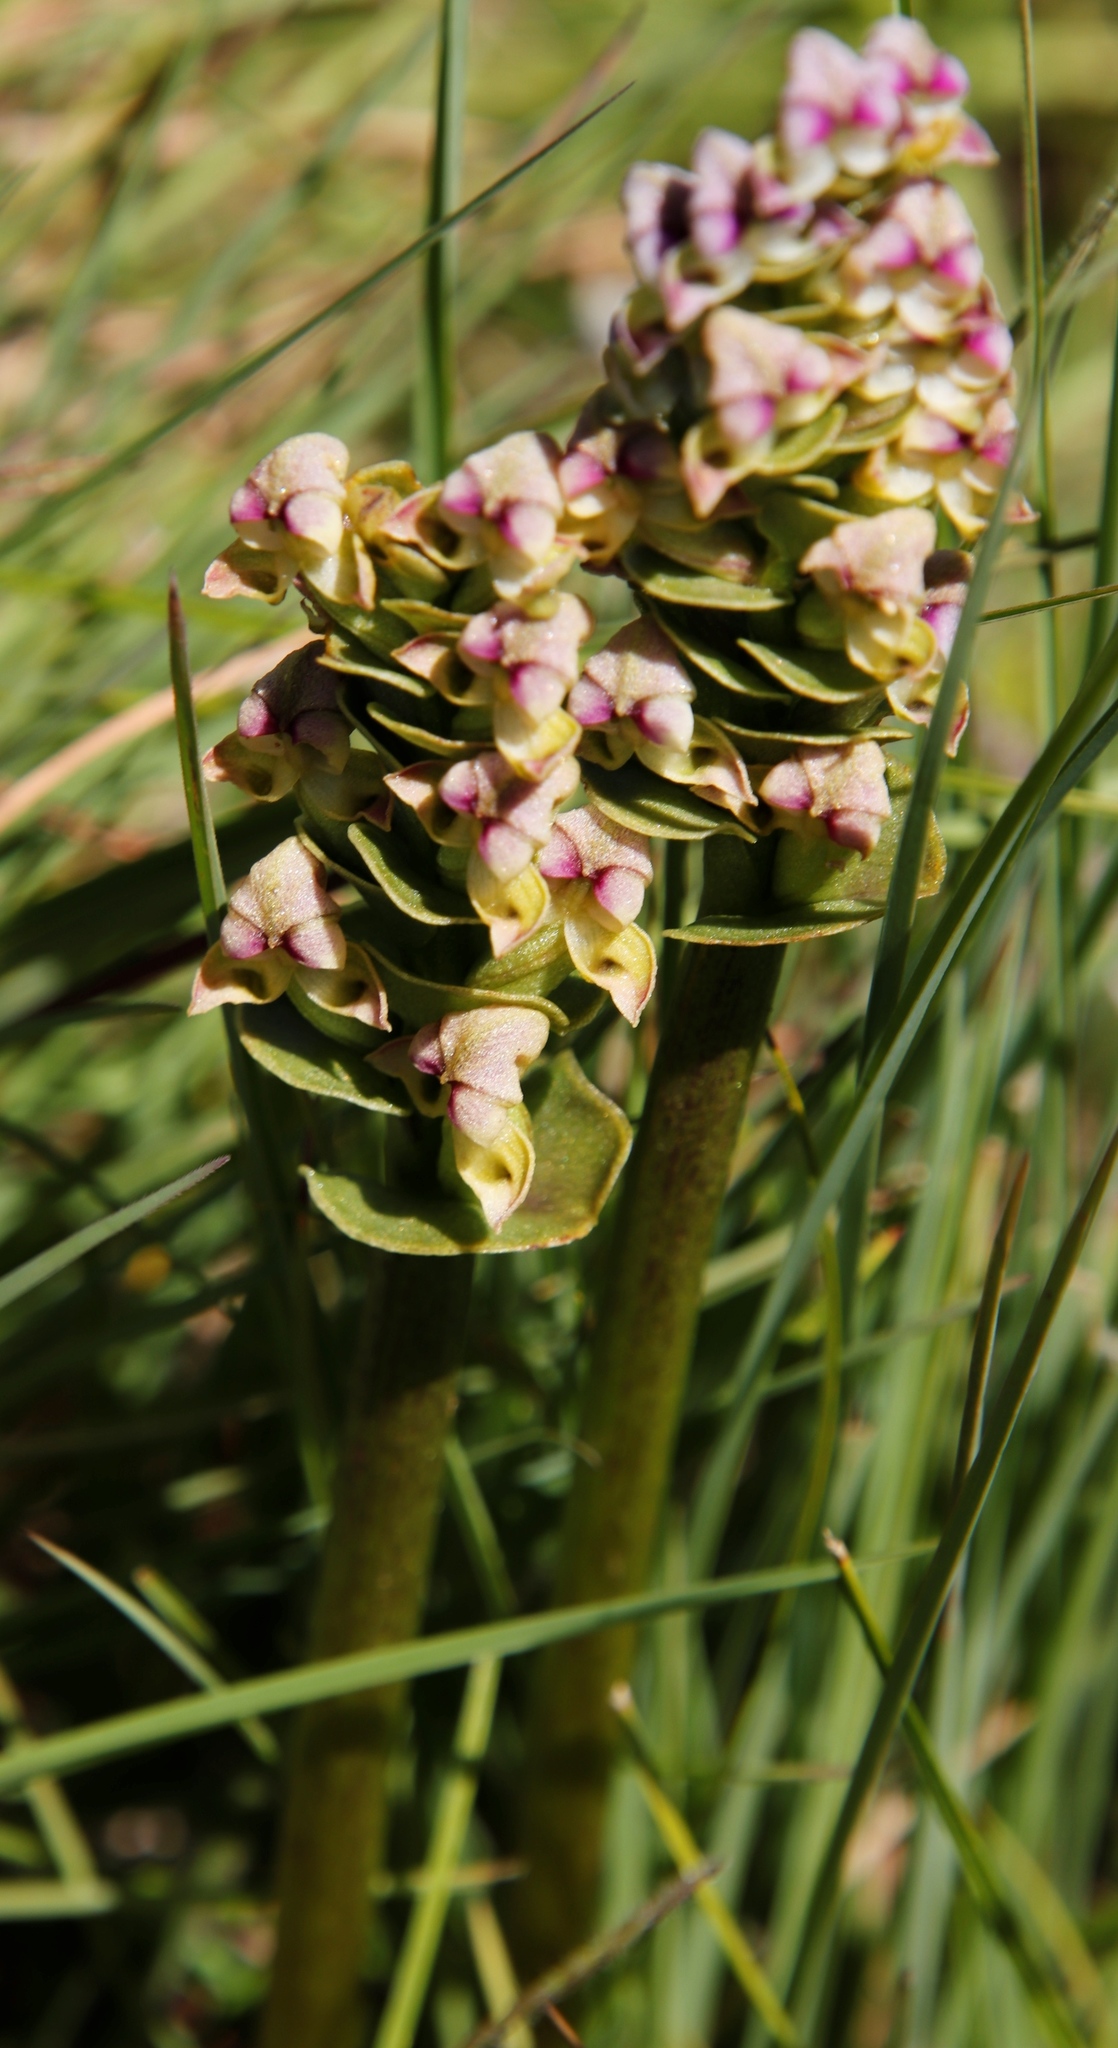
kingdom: Plantae
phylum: Tracheophyta
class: Liliopsida
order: Asparagales
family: Orchidaceae
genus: Disperis
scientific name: Disperis cardiophora
